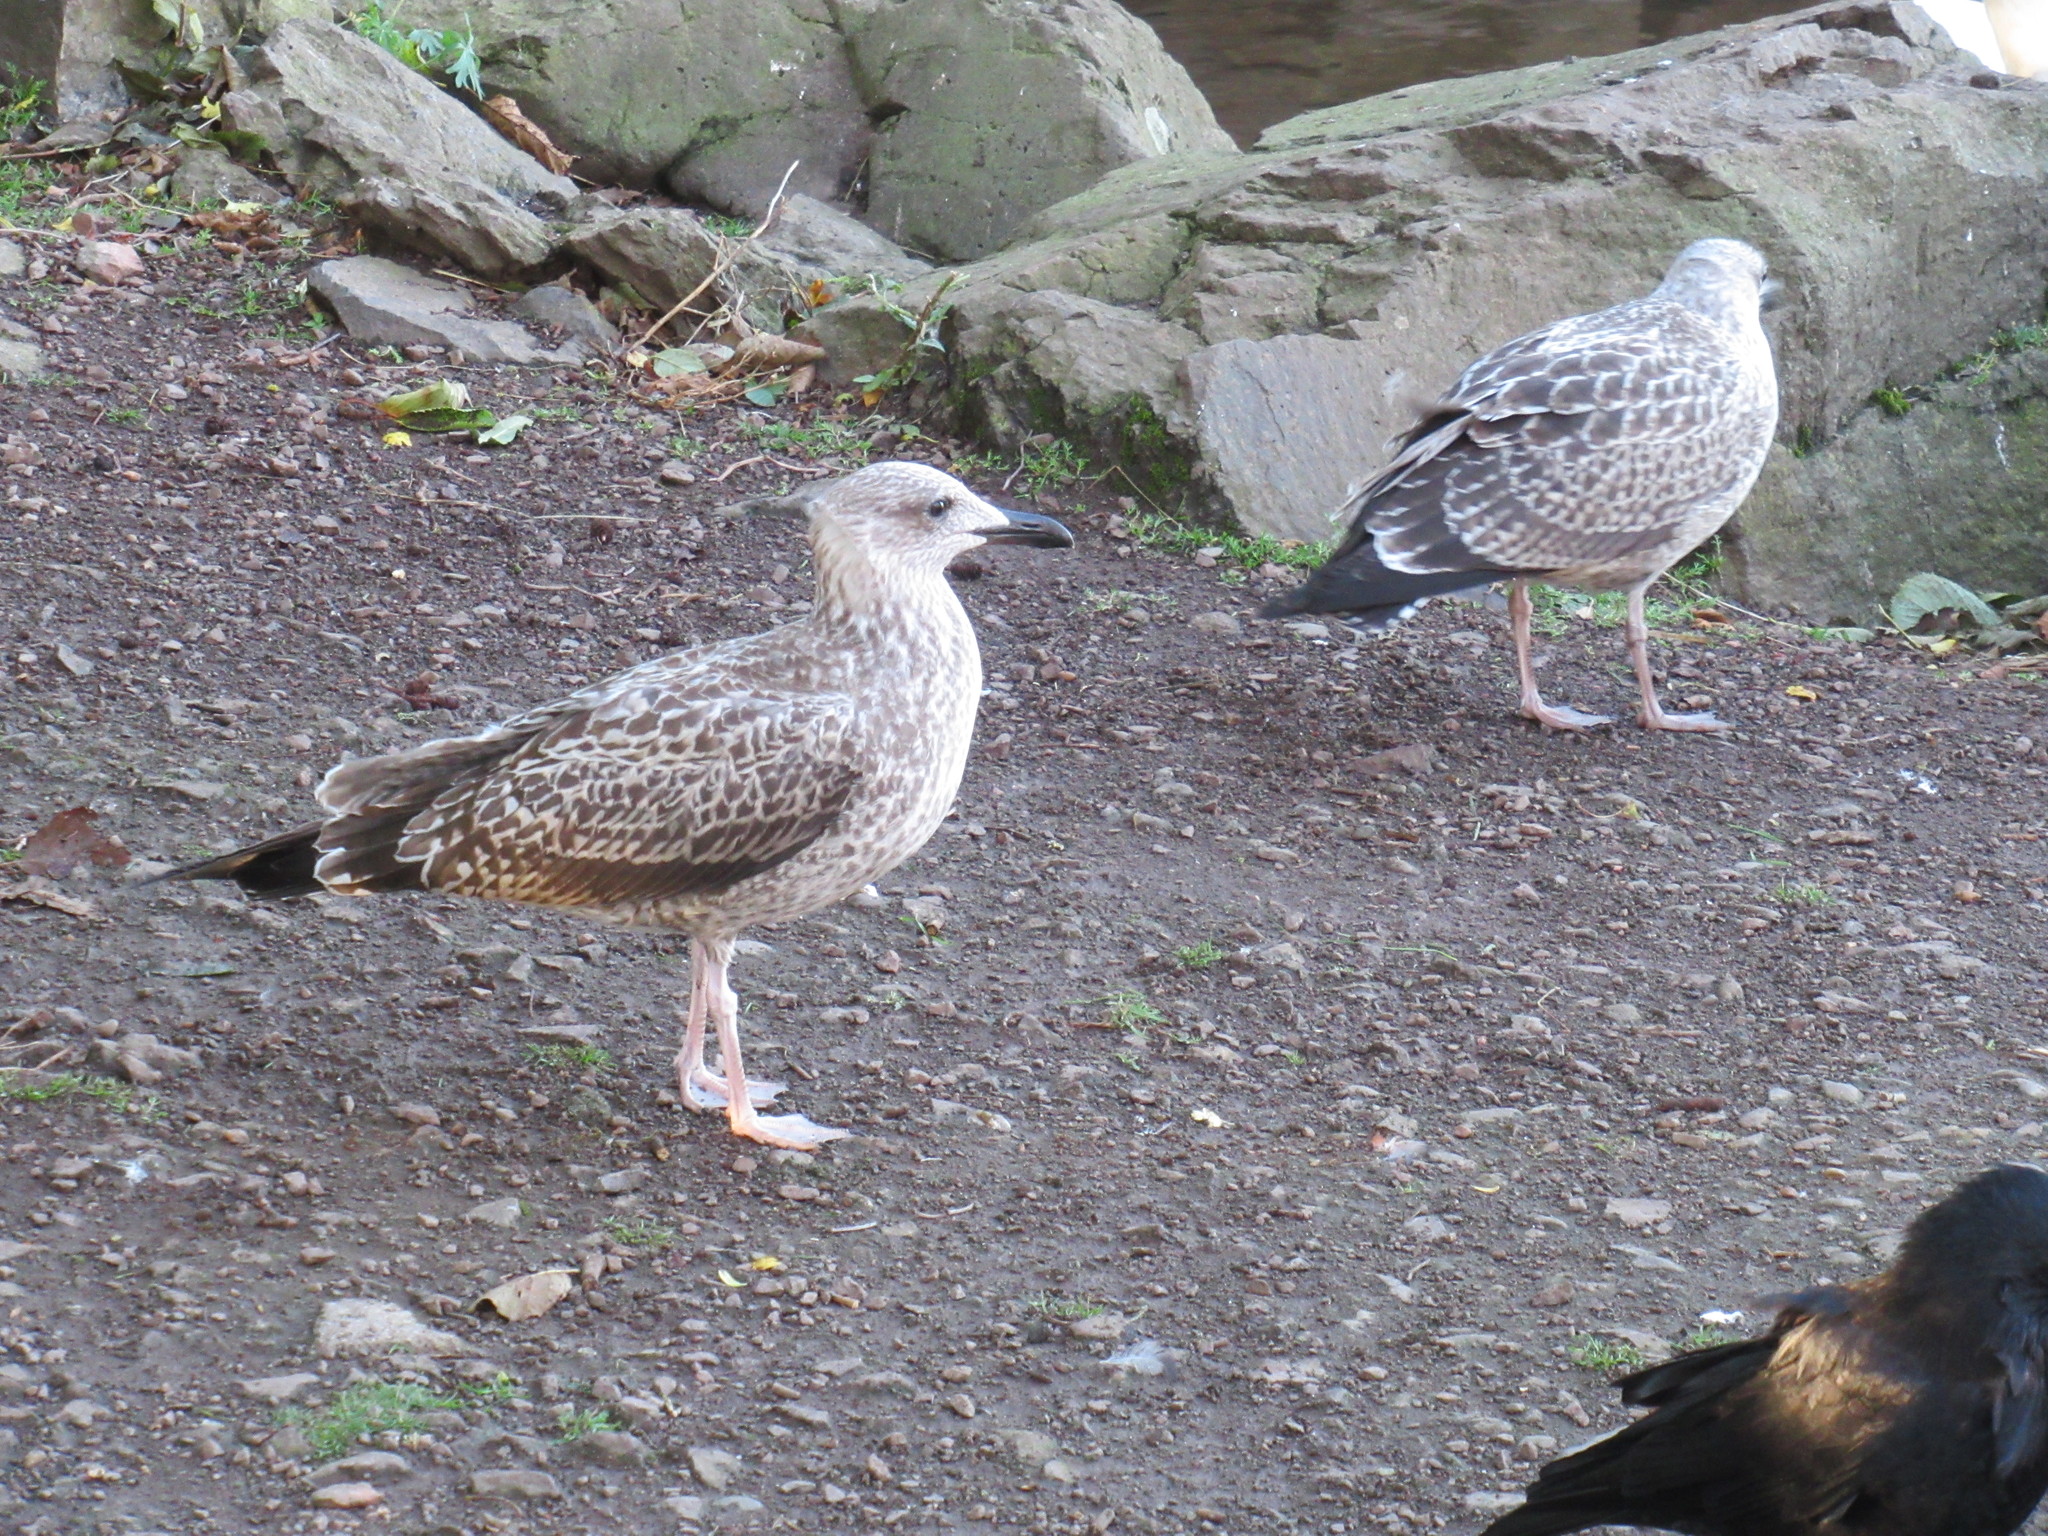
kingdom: Animalia
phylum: Chordata
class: Aves
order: Charadriiformes
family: Laridae
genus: Larus
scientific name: Larus argentatus
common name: Herring gull
